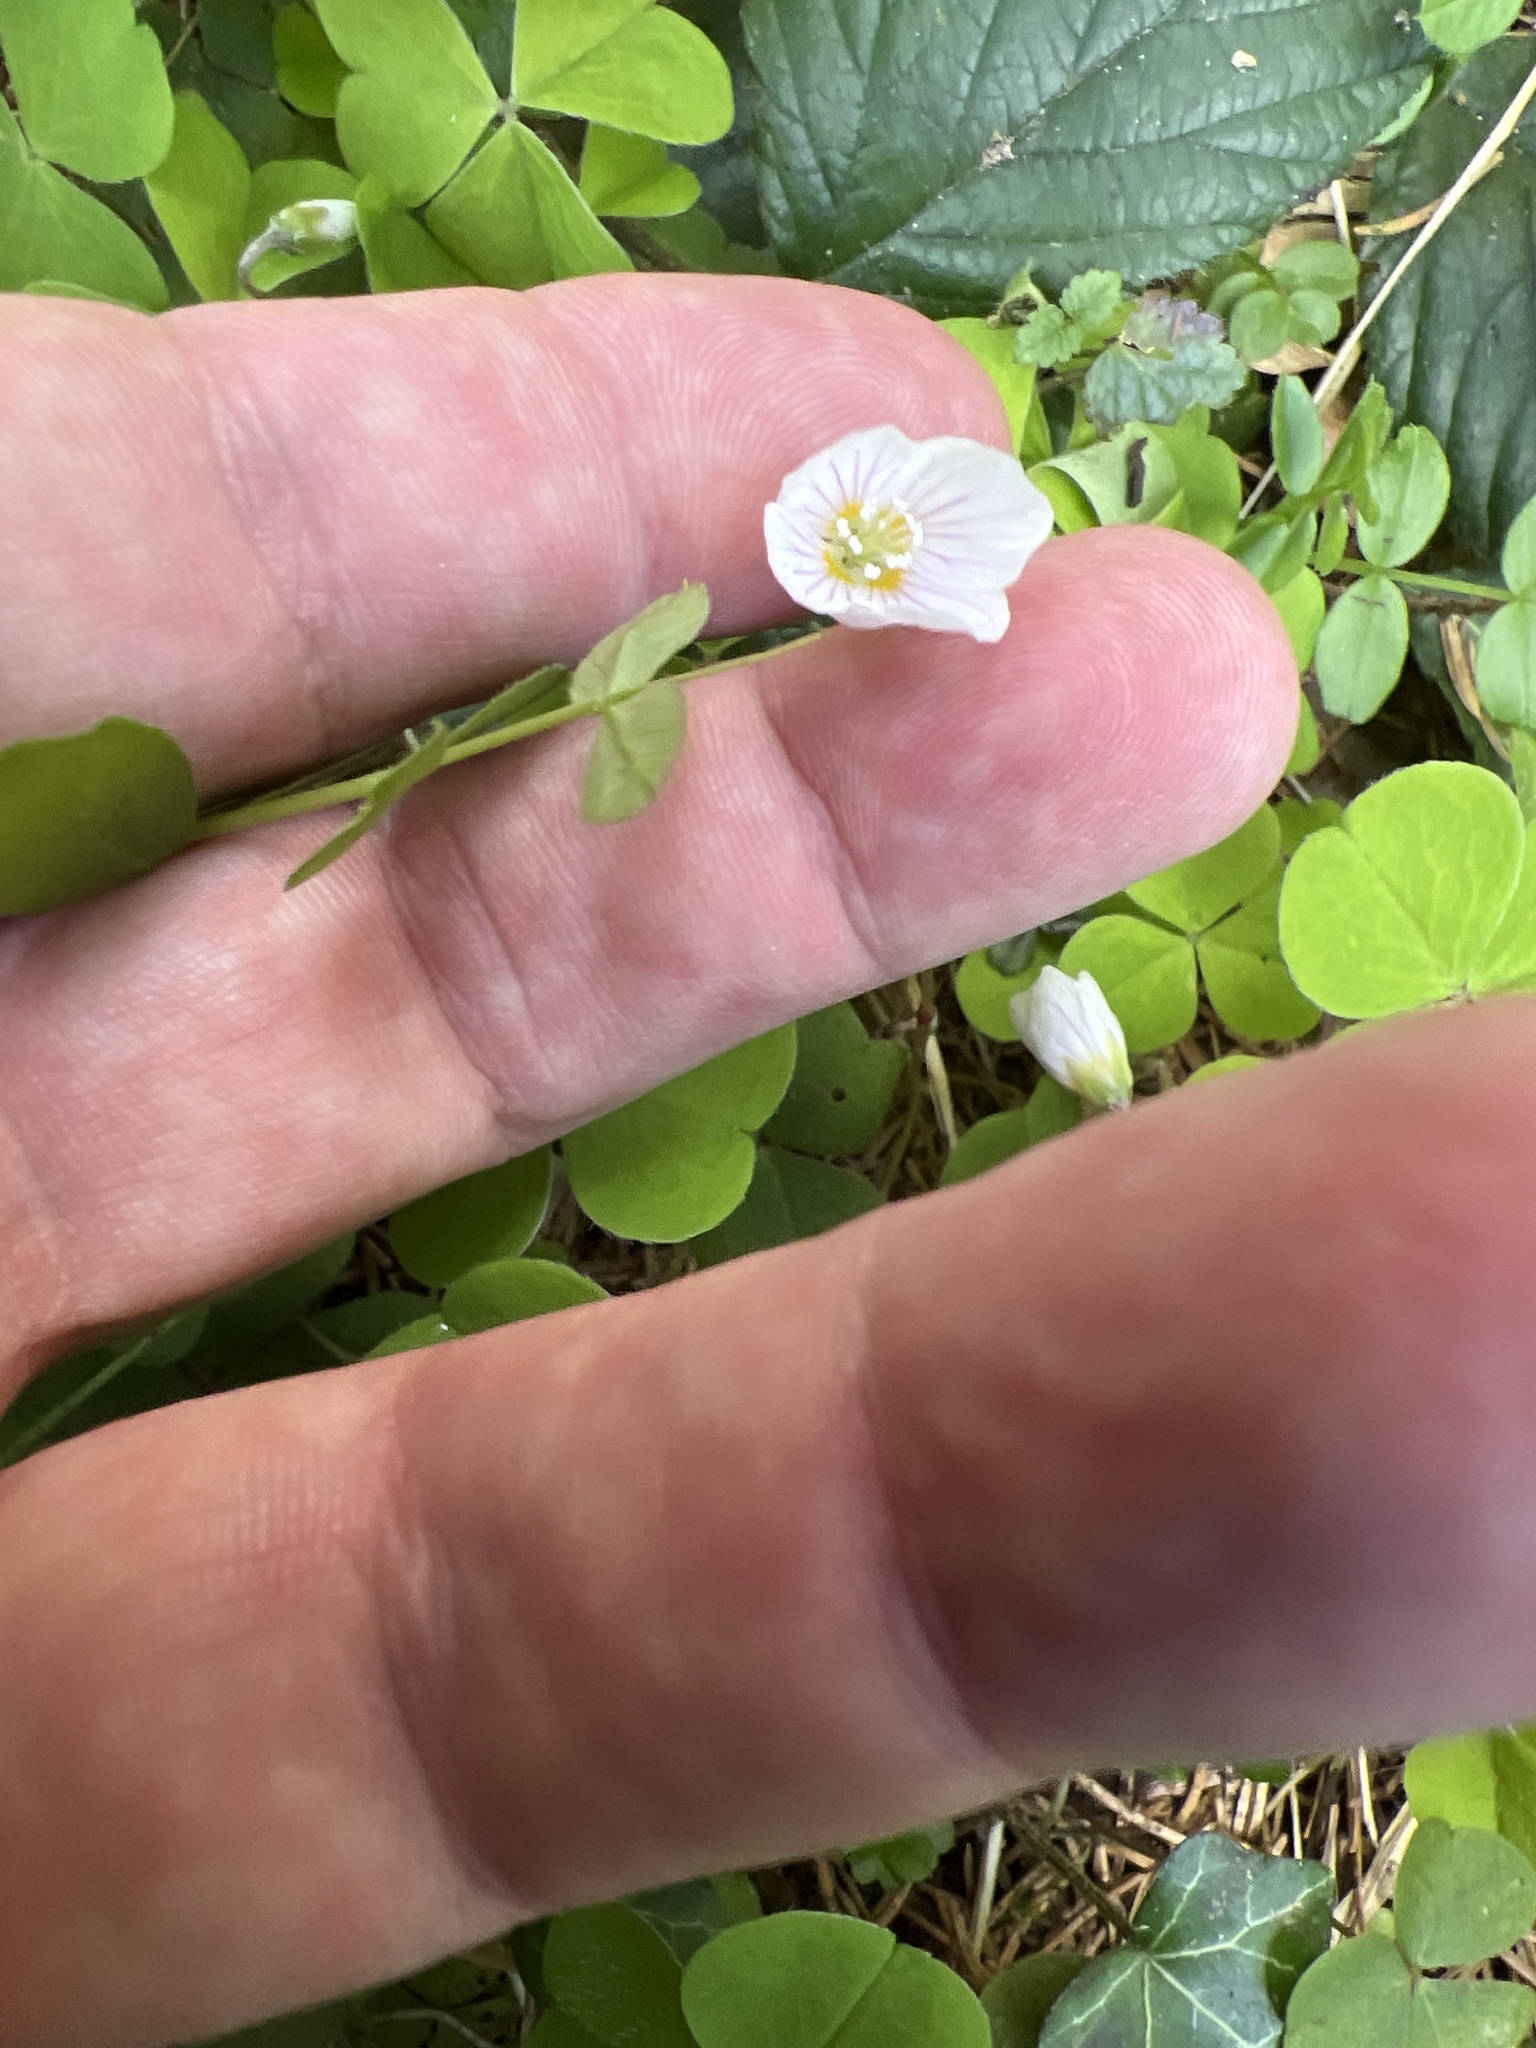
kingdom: Plantae
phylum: Tracheophyta
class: Magnoliopsida
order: Oxalidales
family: Oxalidaceae
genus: Oxalis
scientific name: Oxalis acetosella
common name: Wood-sorrel
